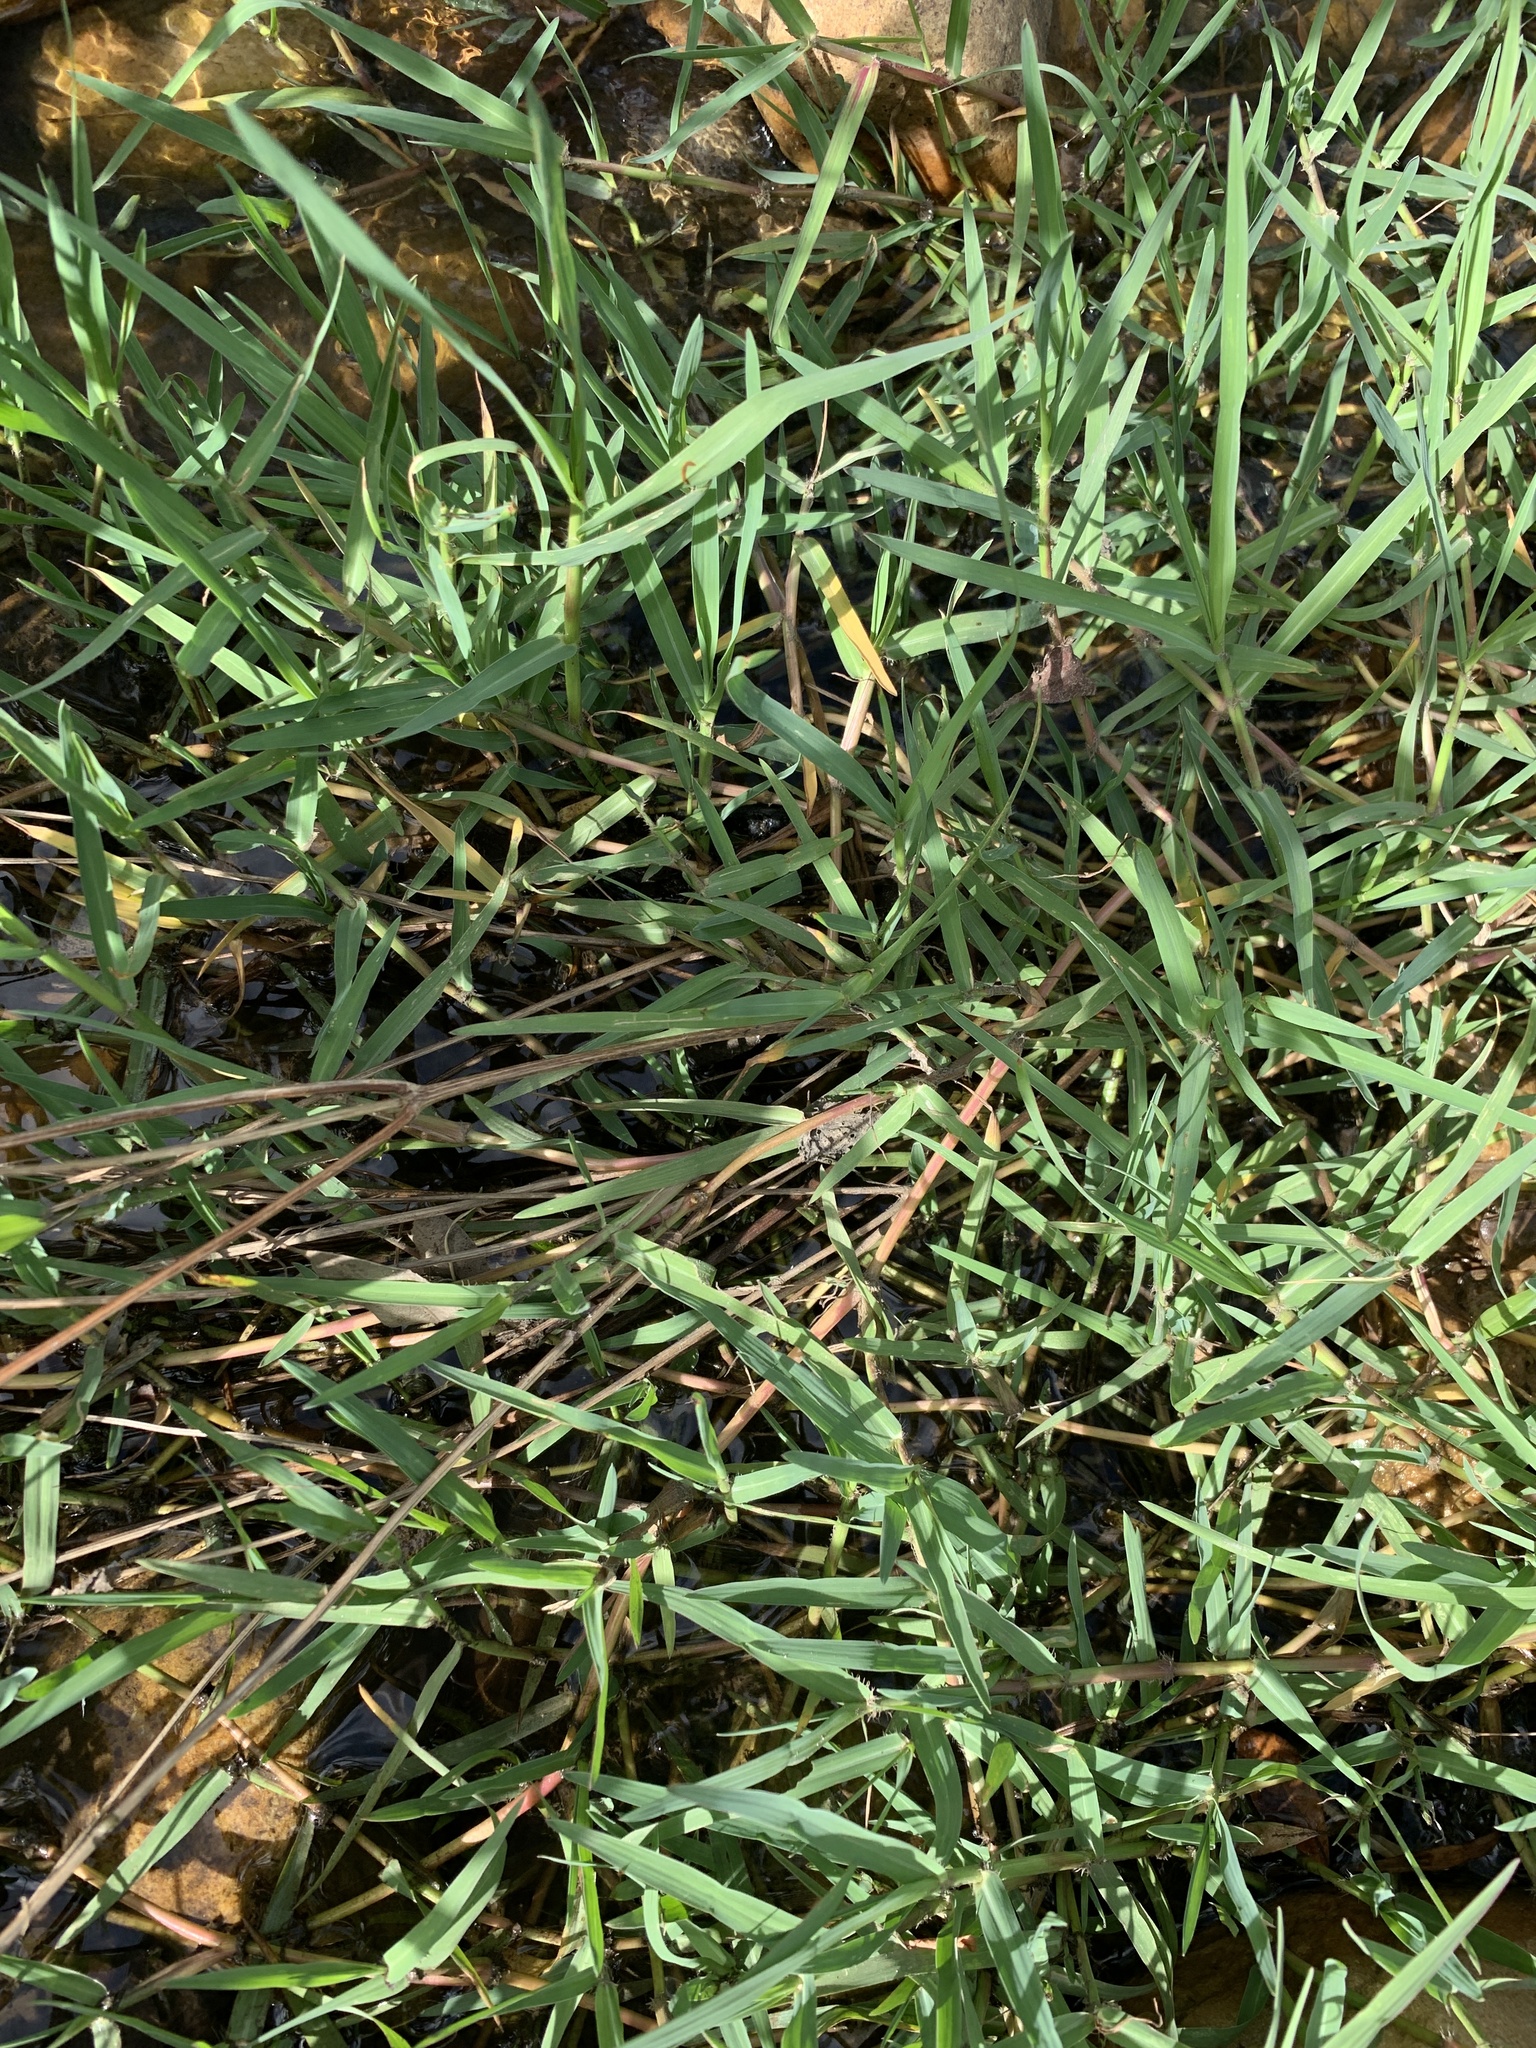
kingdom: Plantae
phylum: Tracheophyta
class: Liliopsida
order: Poales
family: Poaceae
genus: Cynodon
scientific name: Cynodon dactylon
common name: Bermuda grass
